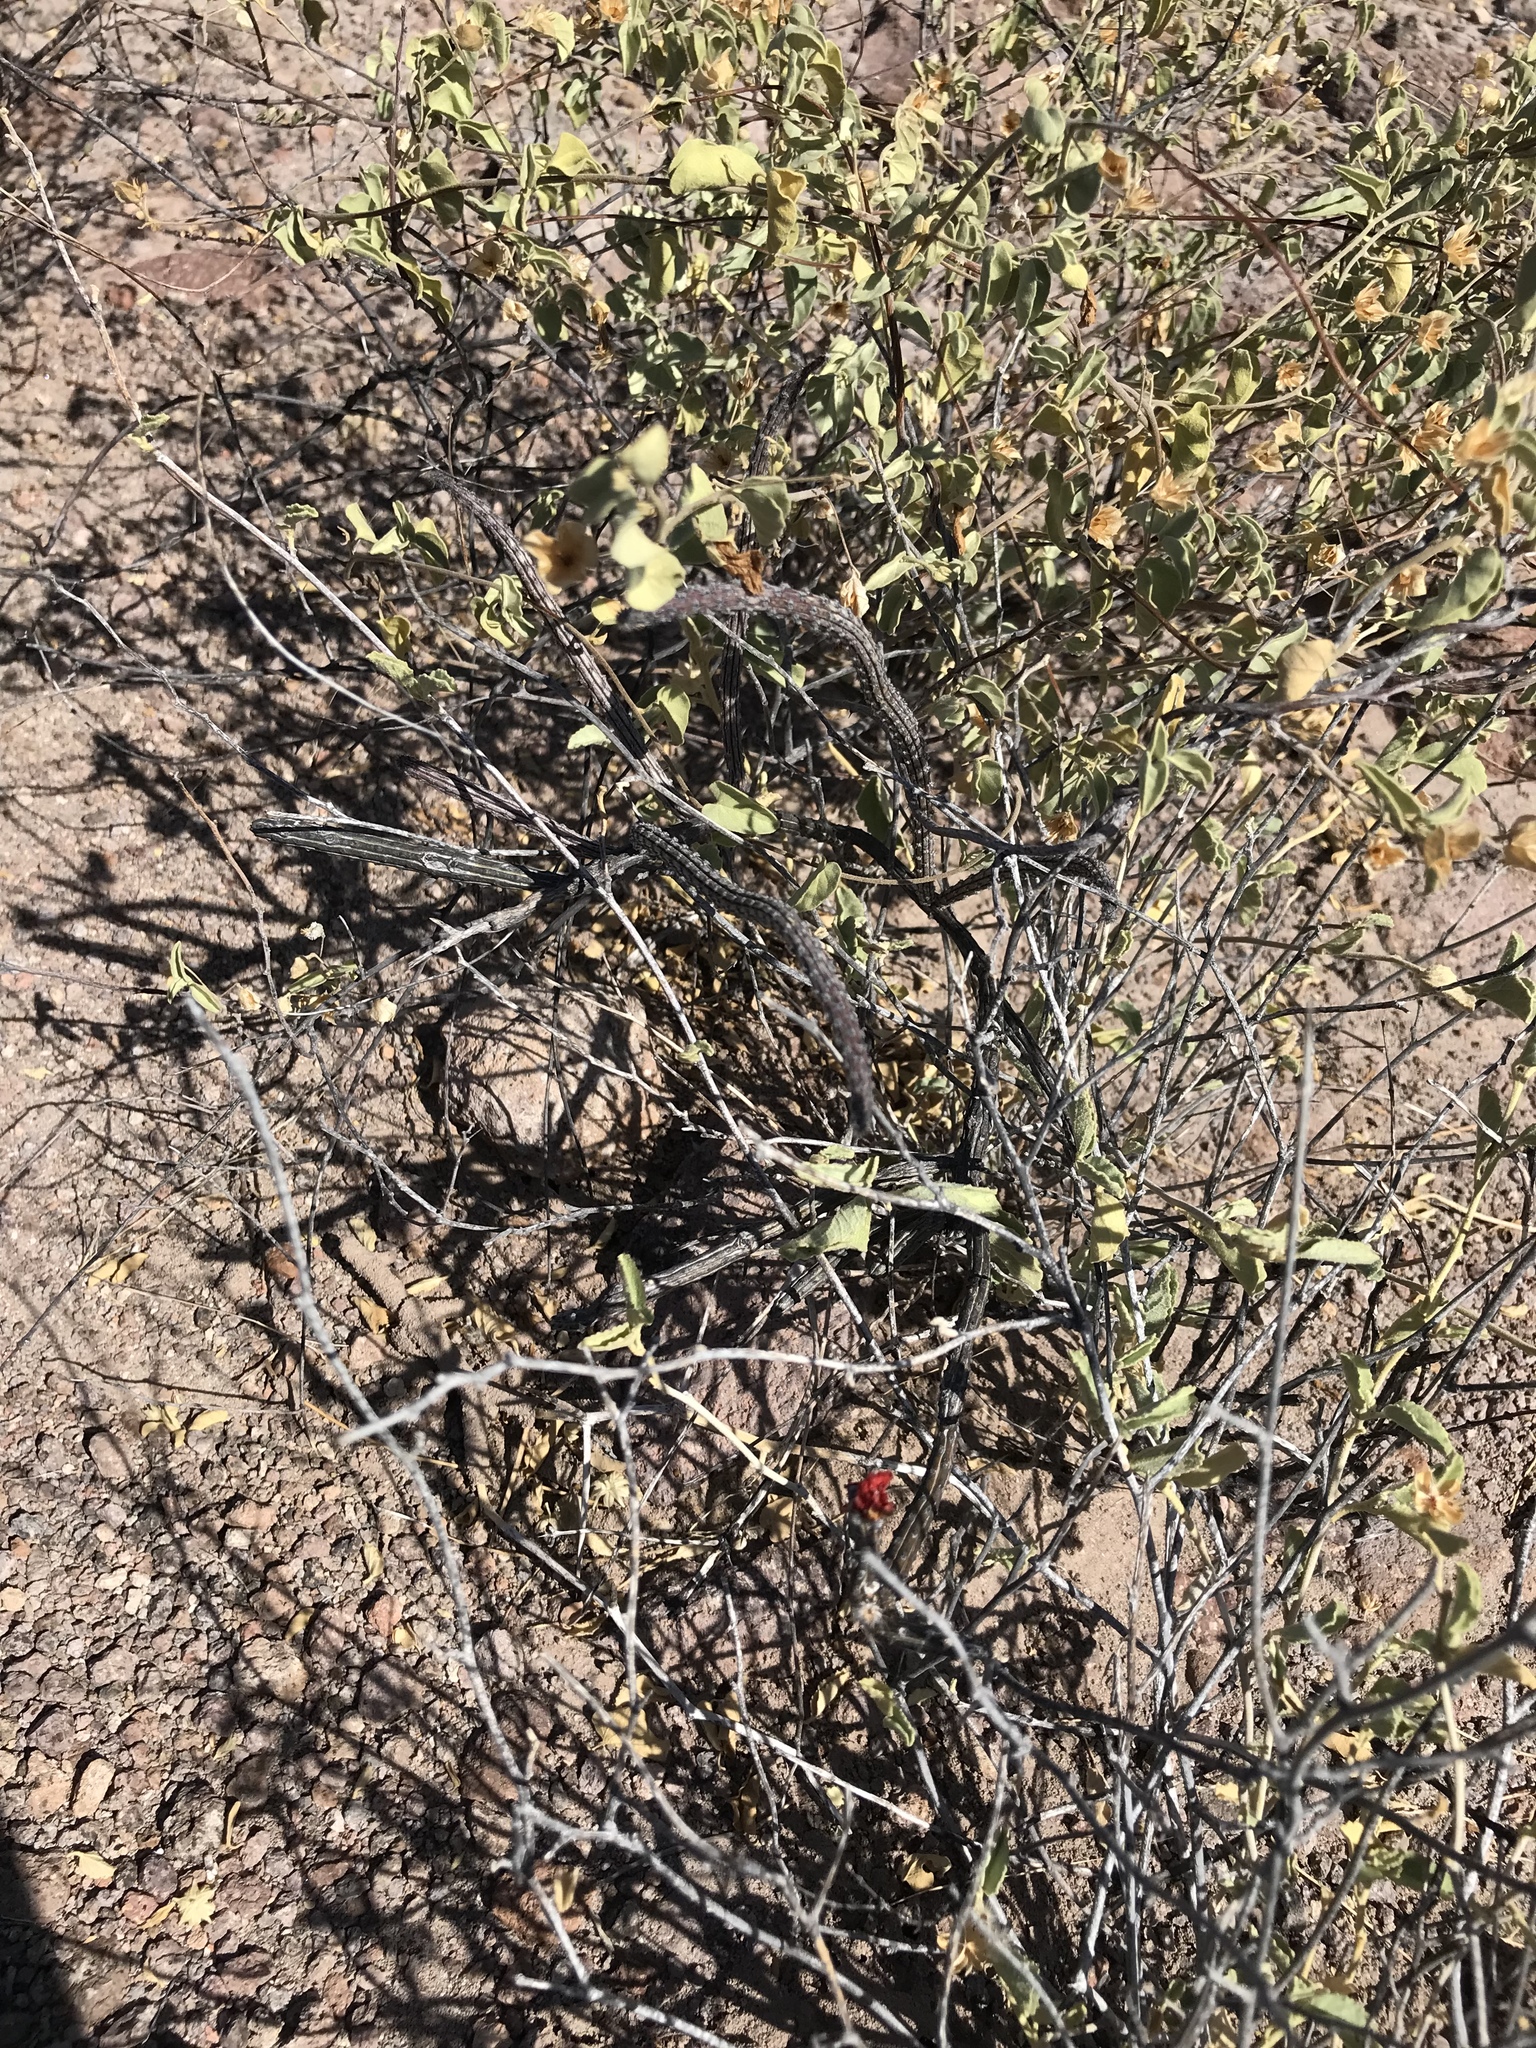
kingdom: Plantae
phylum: Tracheophyta
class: Magnoliopsida
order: Caryophyllales
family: Cactaceae
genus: Peniocereus
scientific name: Peniocereus striatus
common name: Gearstem cactus
